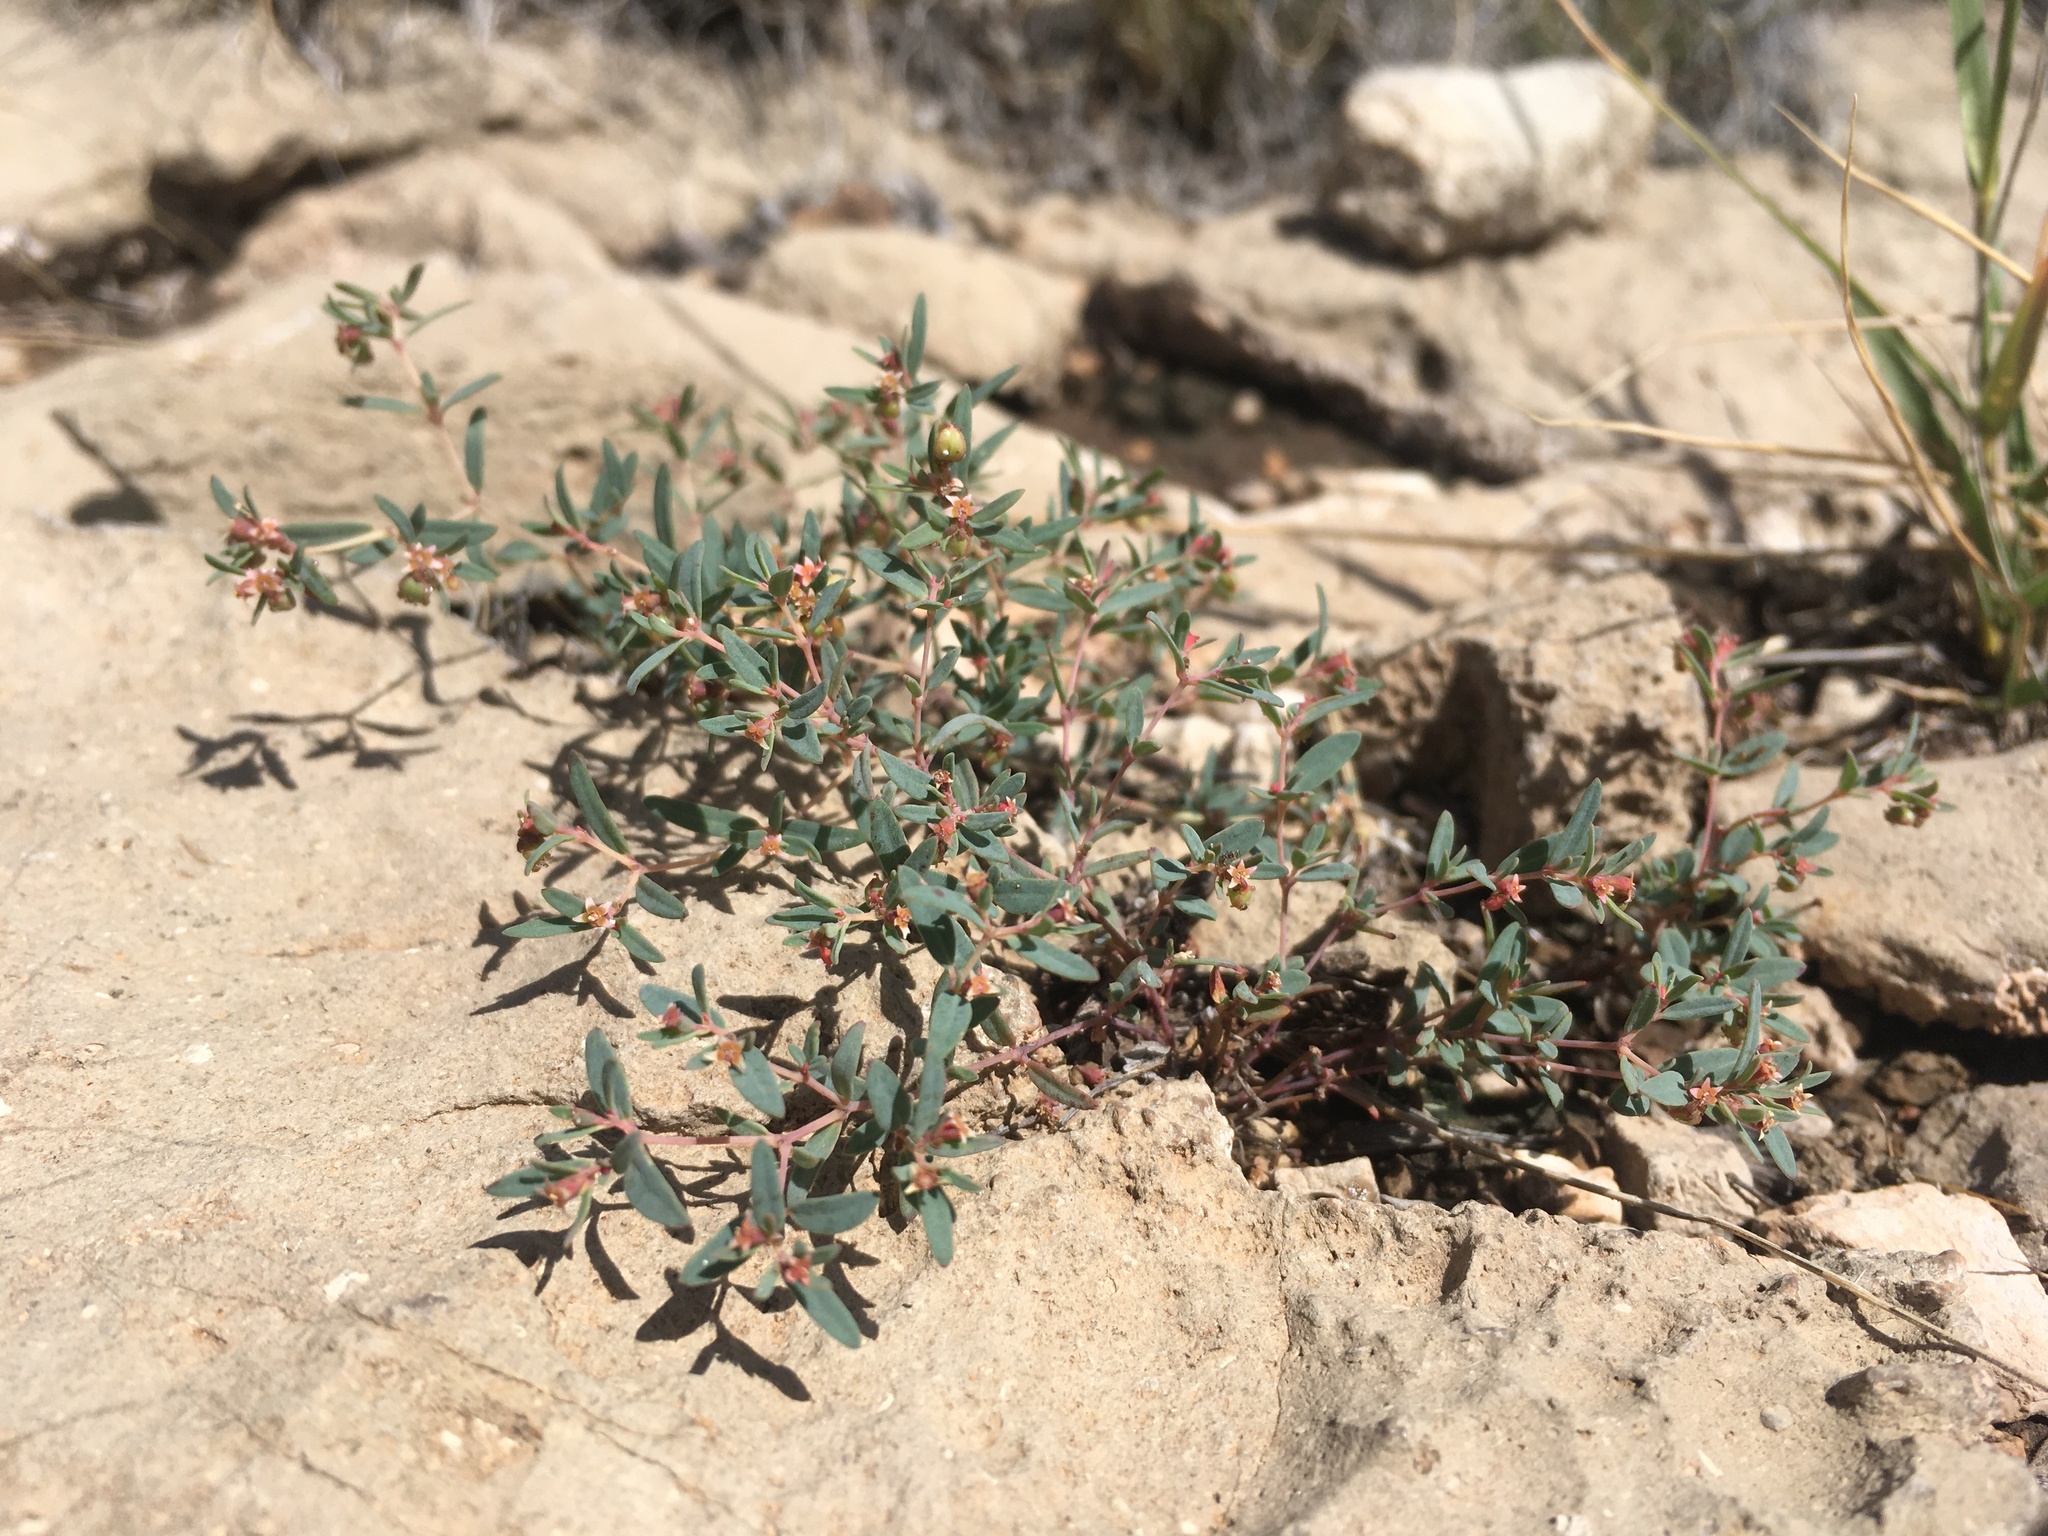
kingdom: Plantae
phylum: Tracheophyta
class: Magnoliopsida
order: Malpighiales
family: Euphorbiaceae
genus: Euphorbia
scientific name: Euphorbia chaetocalyx
